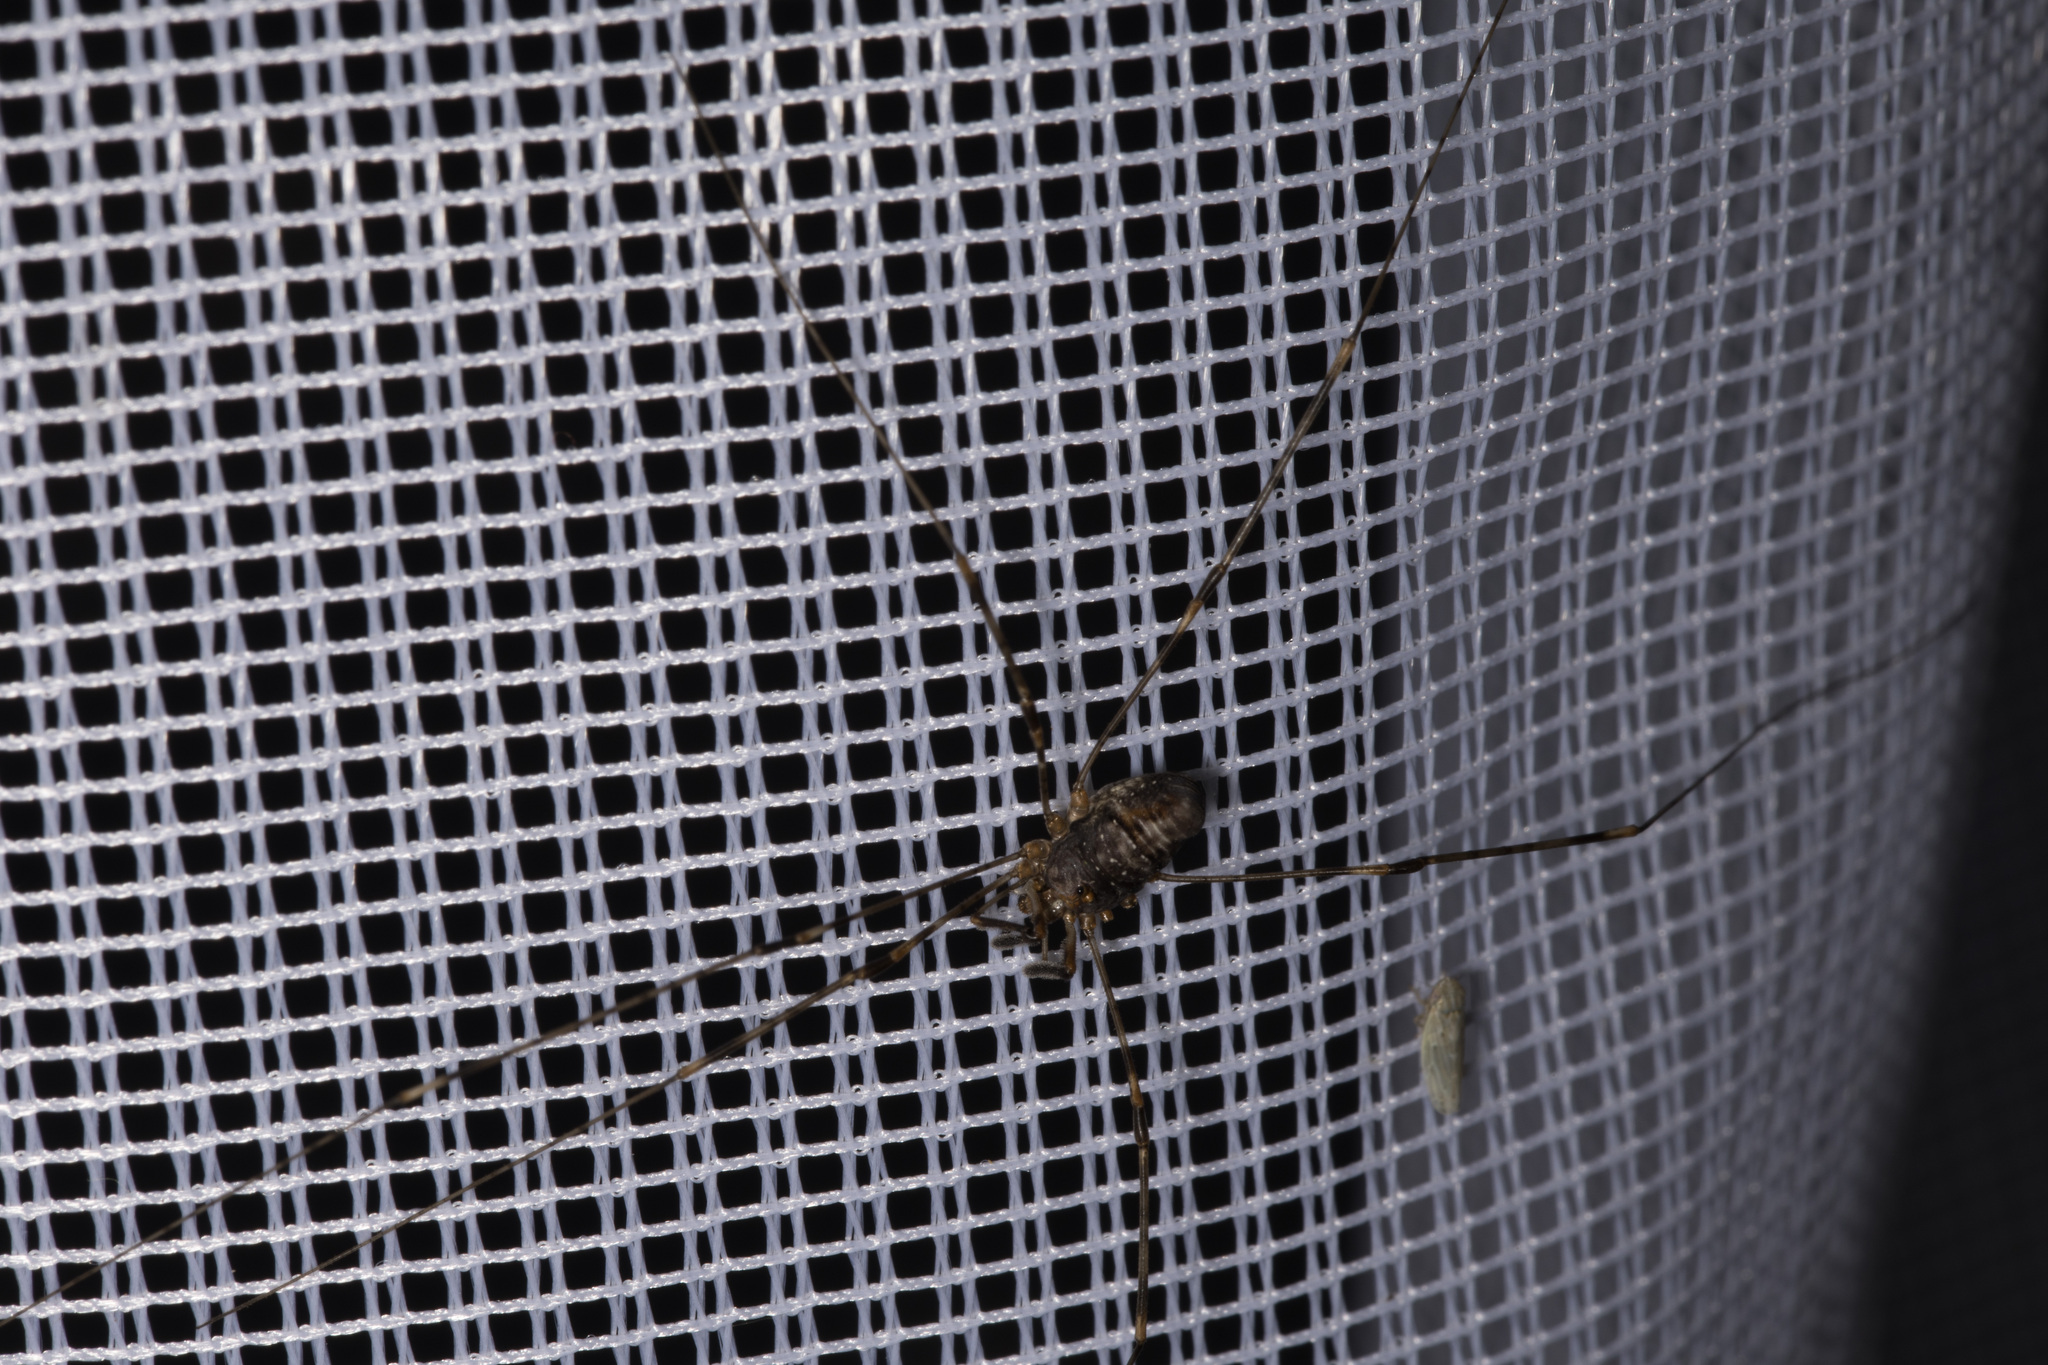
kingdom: Animalia
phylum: Arthropoda
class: Arachnida
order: Opiliones
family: Phalangiidae
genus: Dicranopalpus
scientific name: Dicranopalpus ramosus
